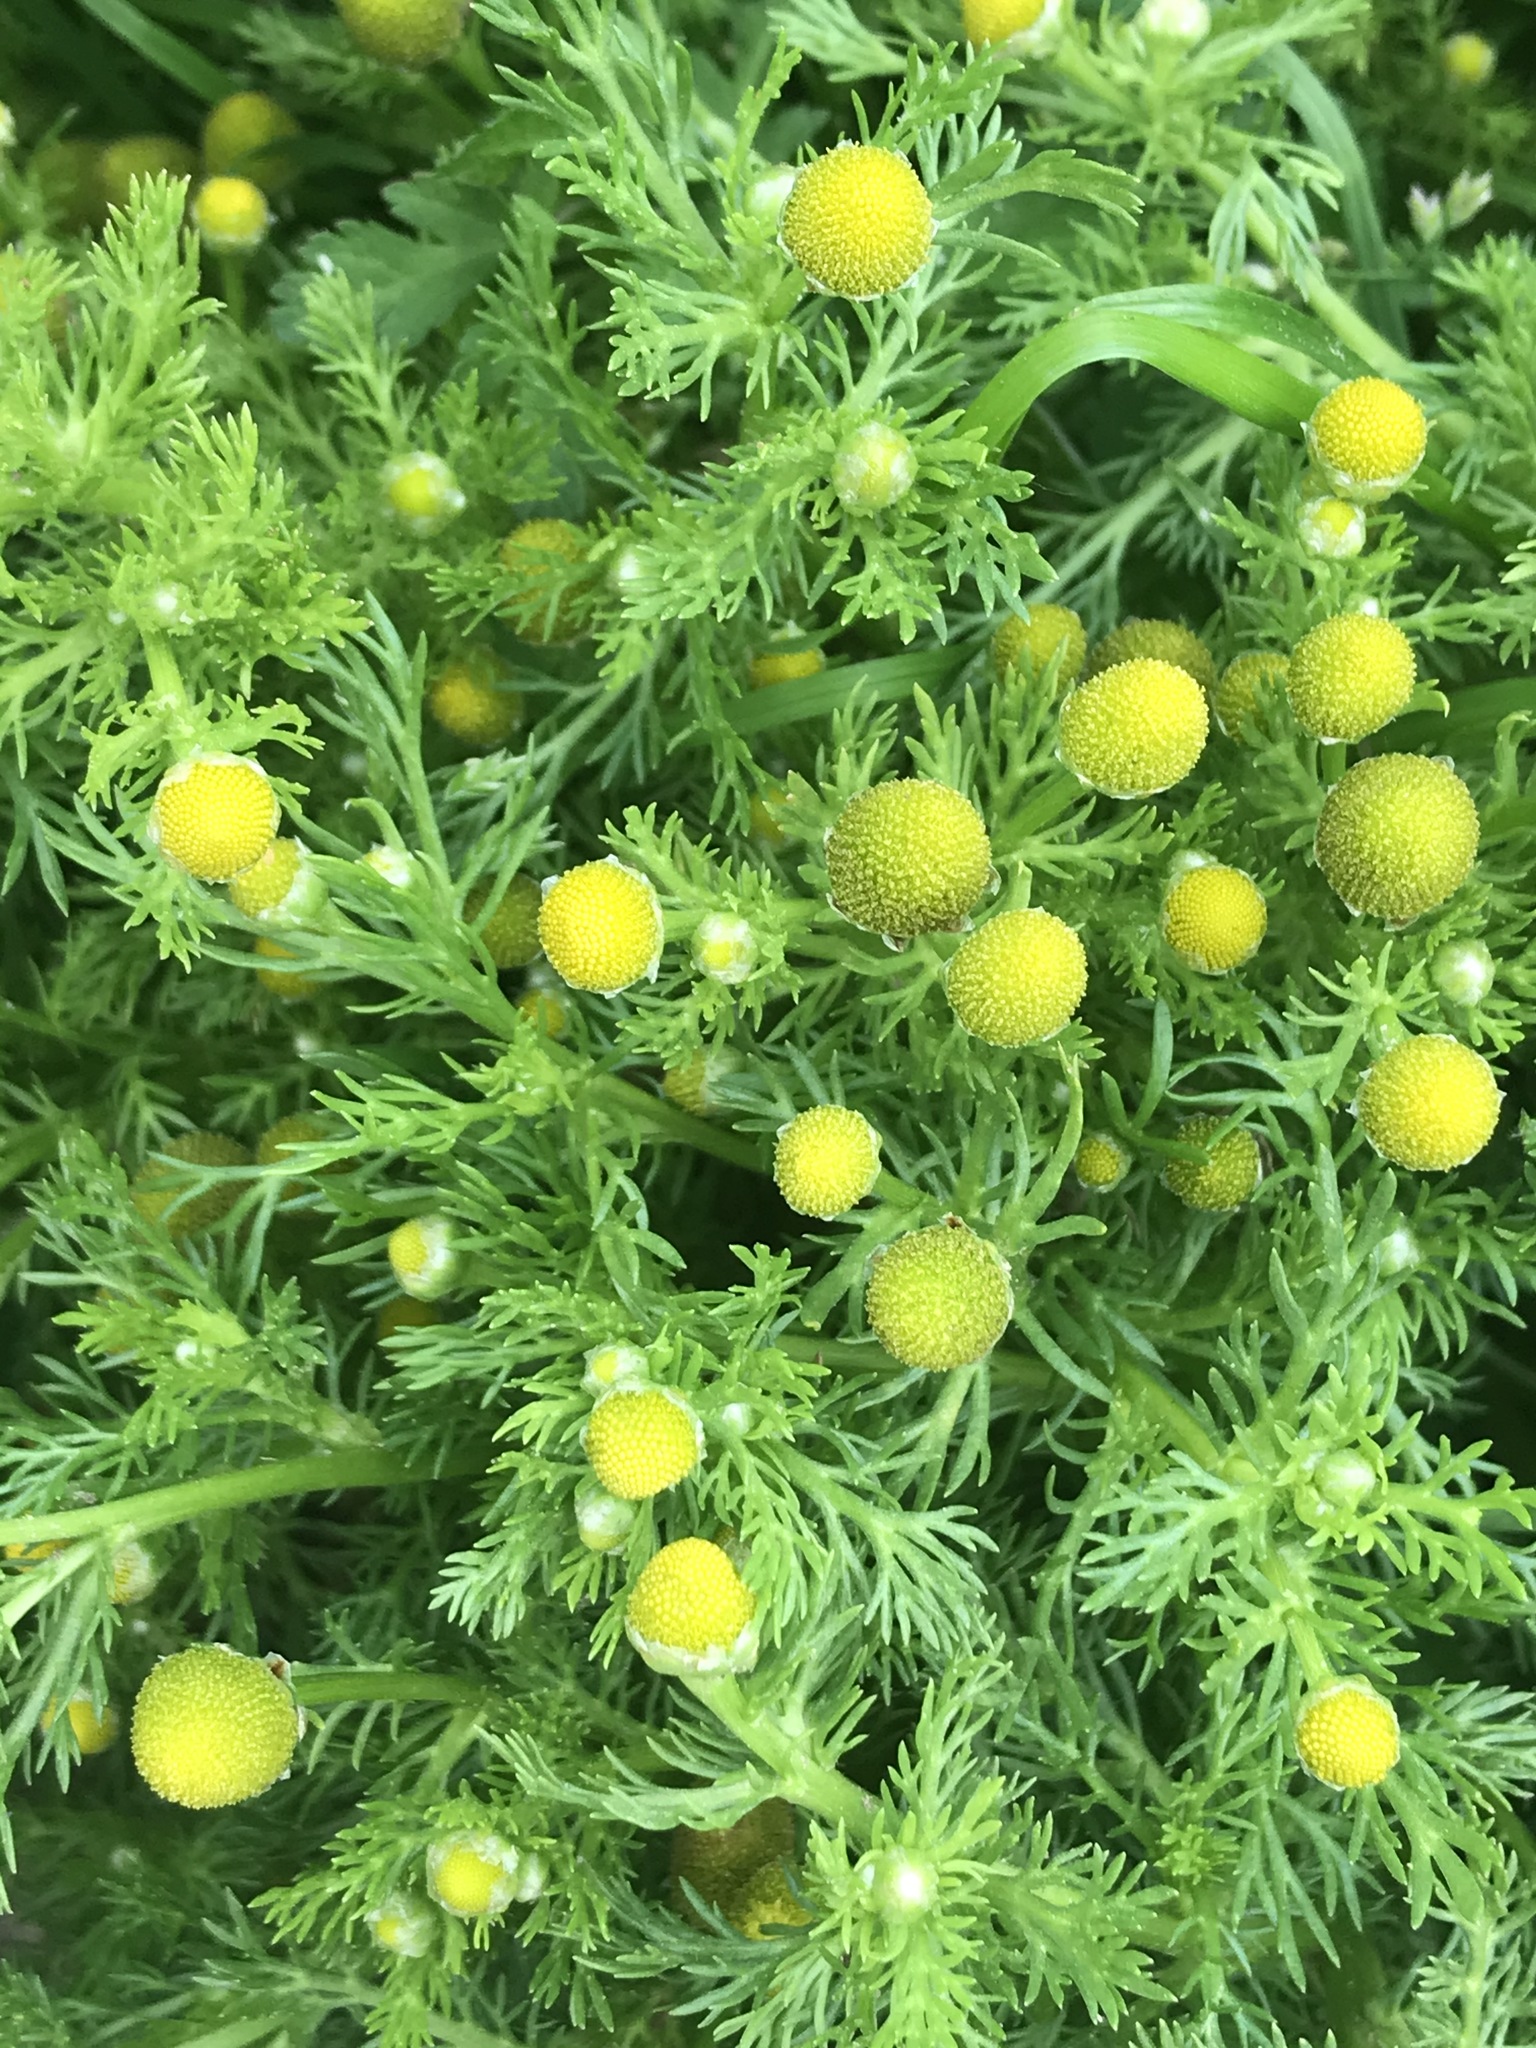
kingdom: Plantae
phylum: Tracheophyta
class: Magnoliopsida
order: Asterales
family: Asteraceae
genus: Matricaria
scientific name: Matricaria discoidea
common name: Disc mayweed
